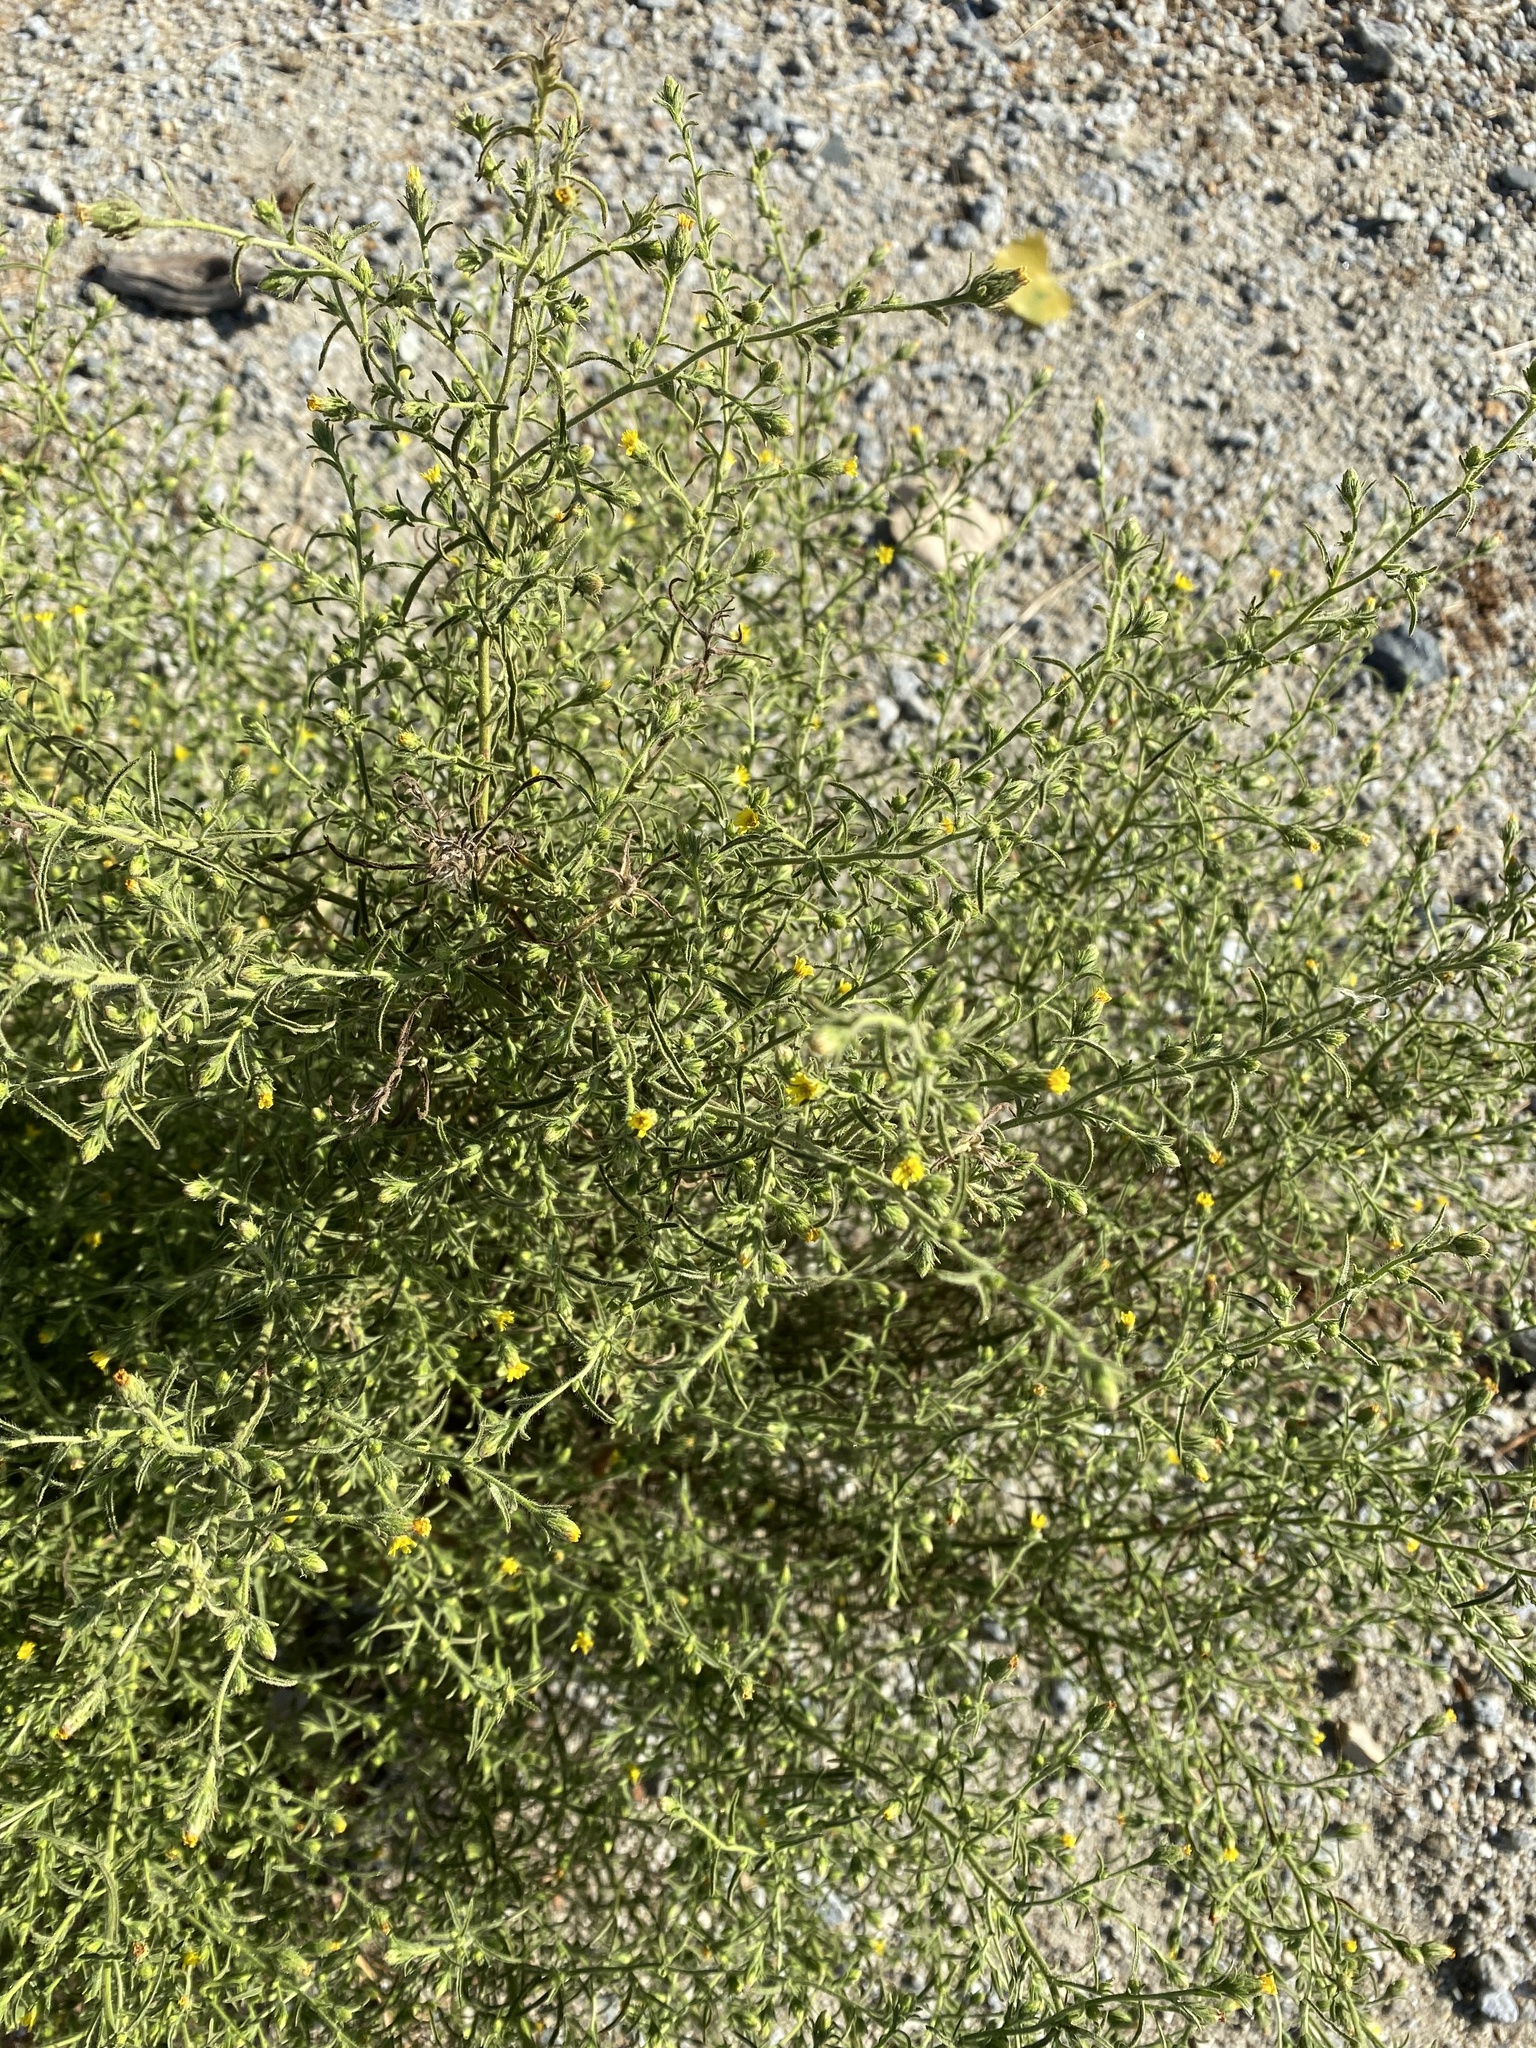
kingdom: Plantae
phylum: Tracheophyta
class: Magnoliopsida
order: Asterales
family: Asteraceae
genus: Dittrichia
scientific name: Dittrichia graveolens
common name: Stinking fleabane
